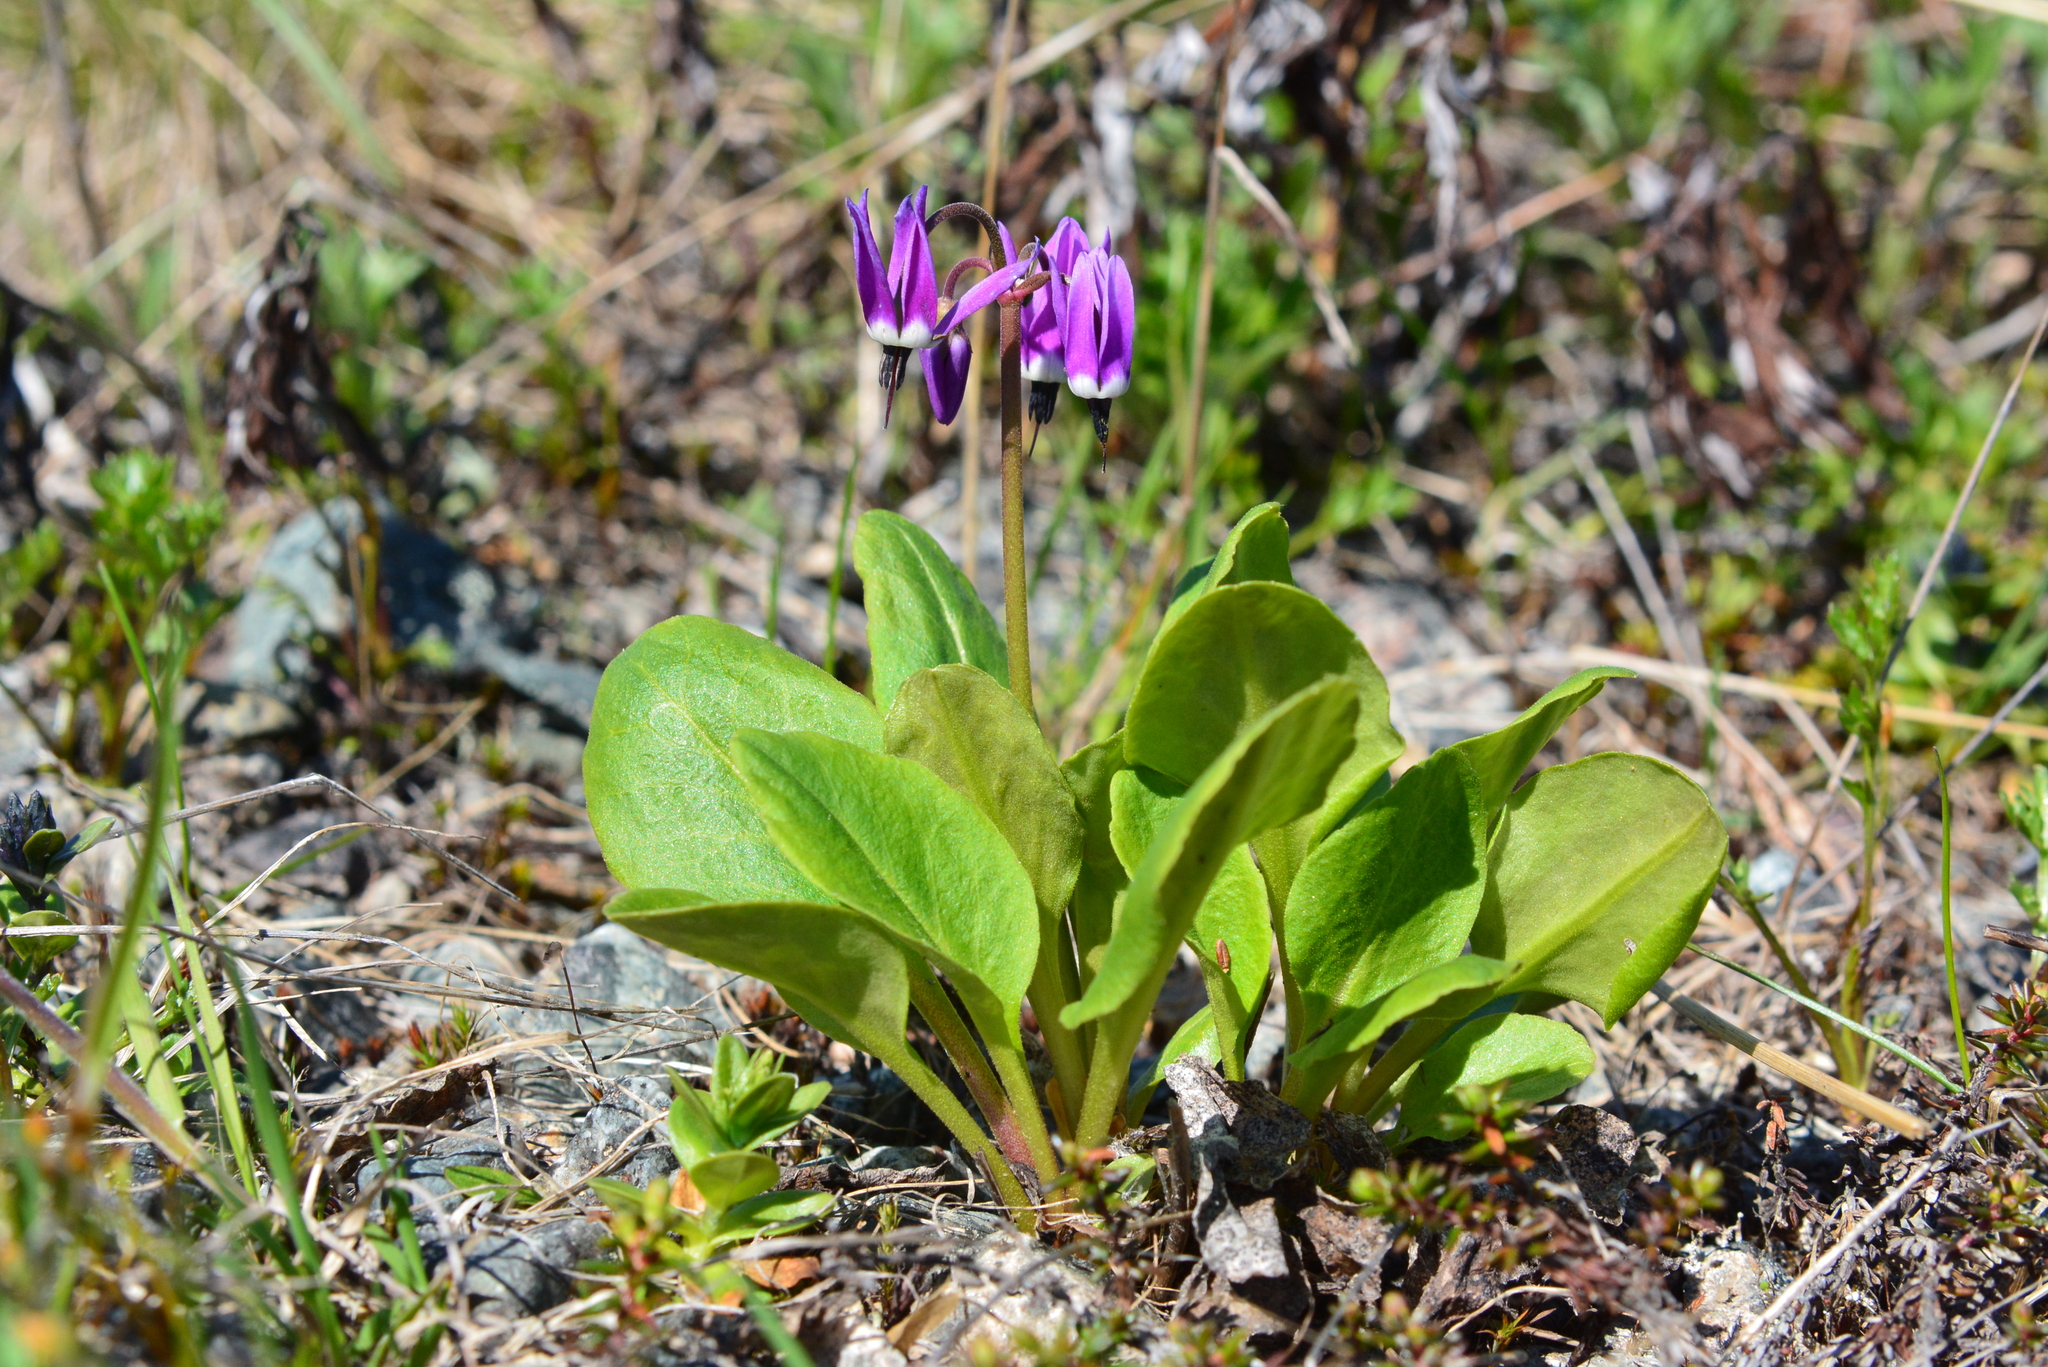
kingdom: Plantae
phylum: Tracheophyta
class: Magnoliopsida
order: Ericales
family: Primulaceae
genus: Dodecatheon
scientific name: Dodecatheon frigidum
